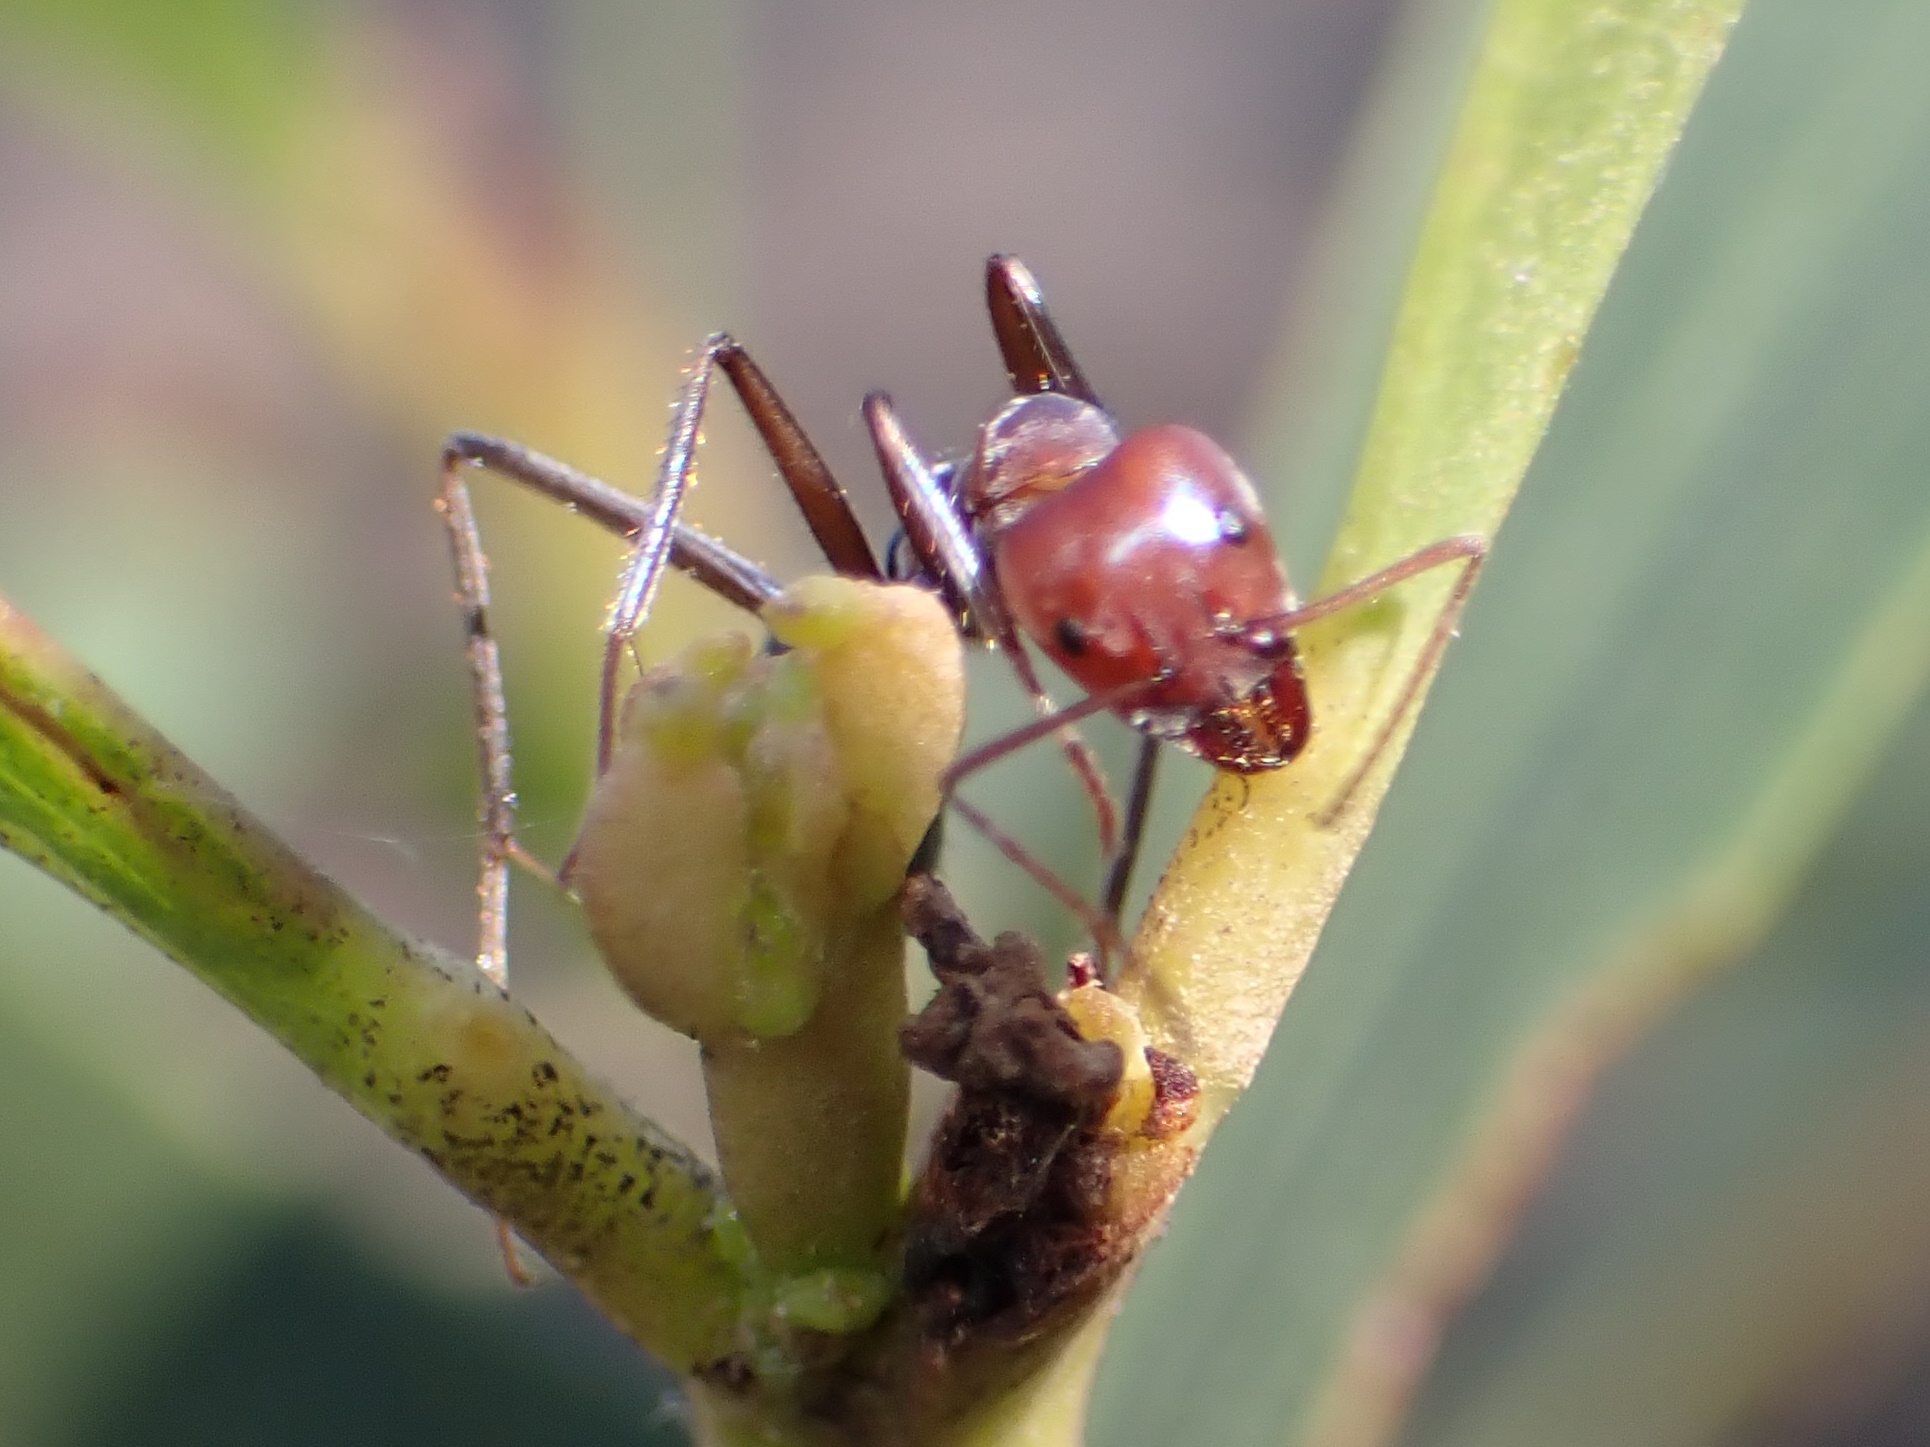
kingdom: Animalia
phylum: Arthropoda
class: Insecta
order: Hymenoptera
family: Formicidae
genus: Iridomyrmex
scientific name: Iridomyrmex purpureus
